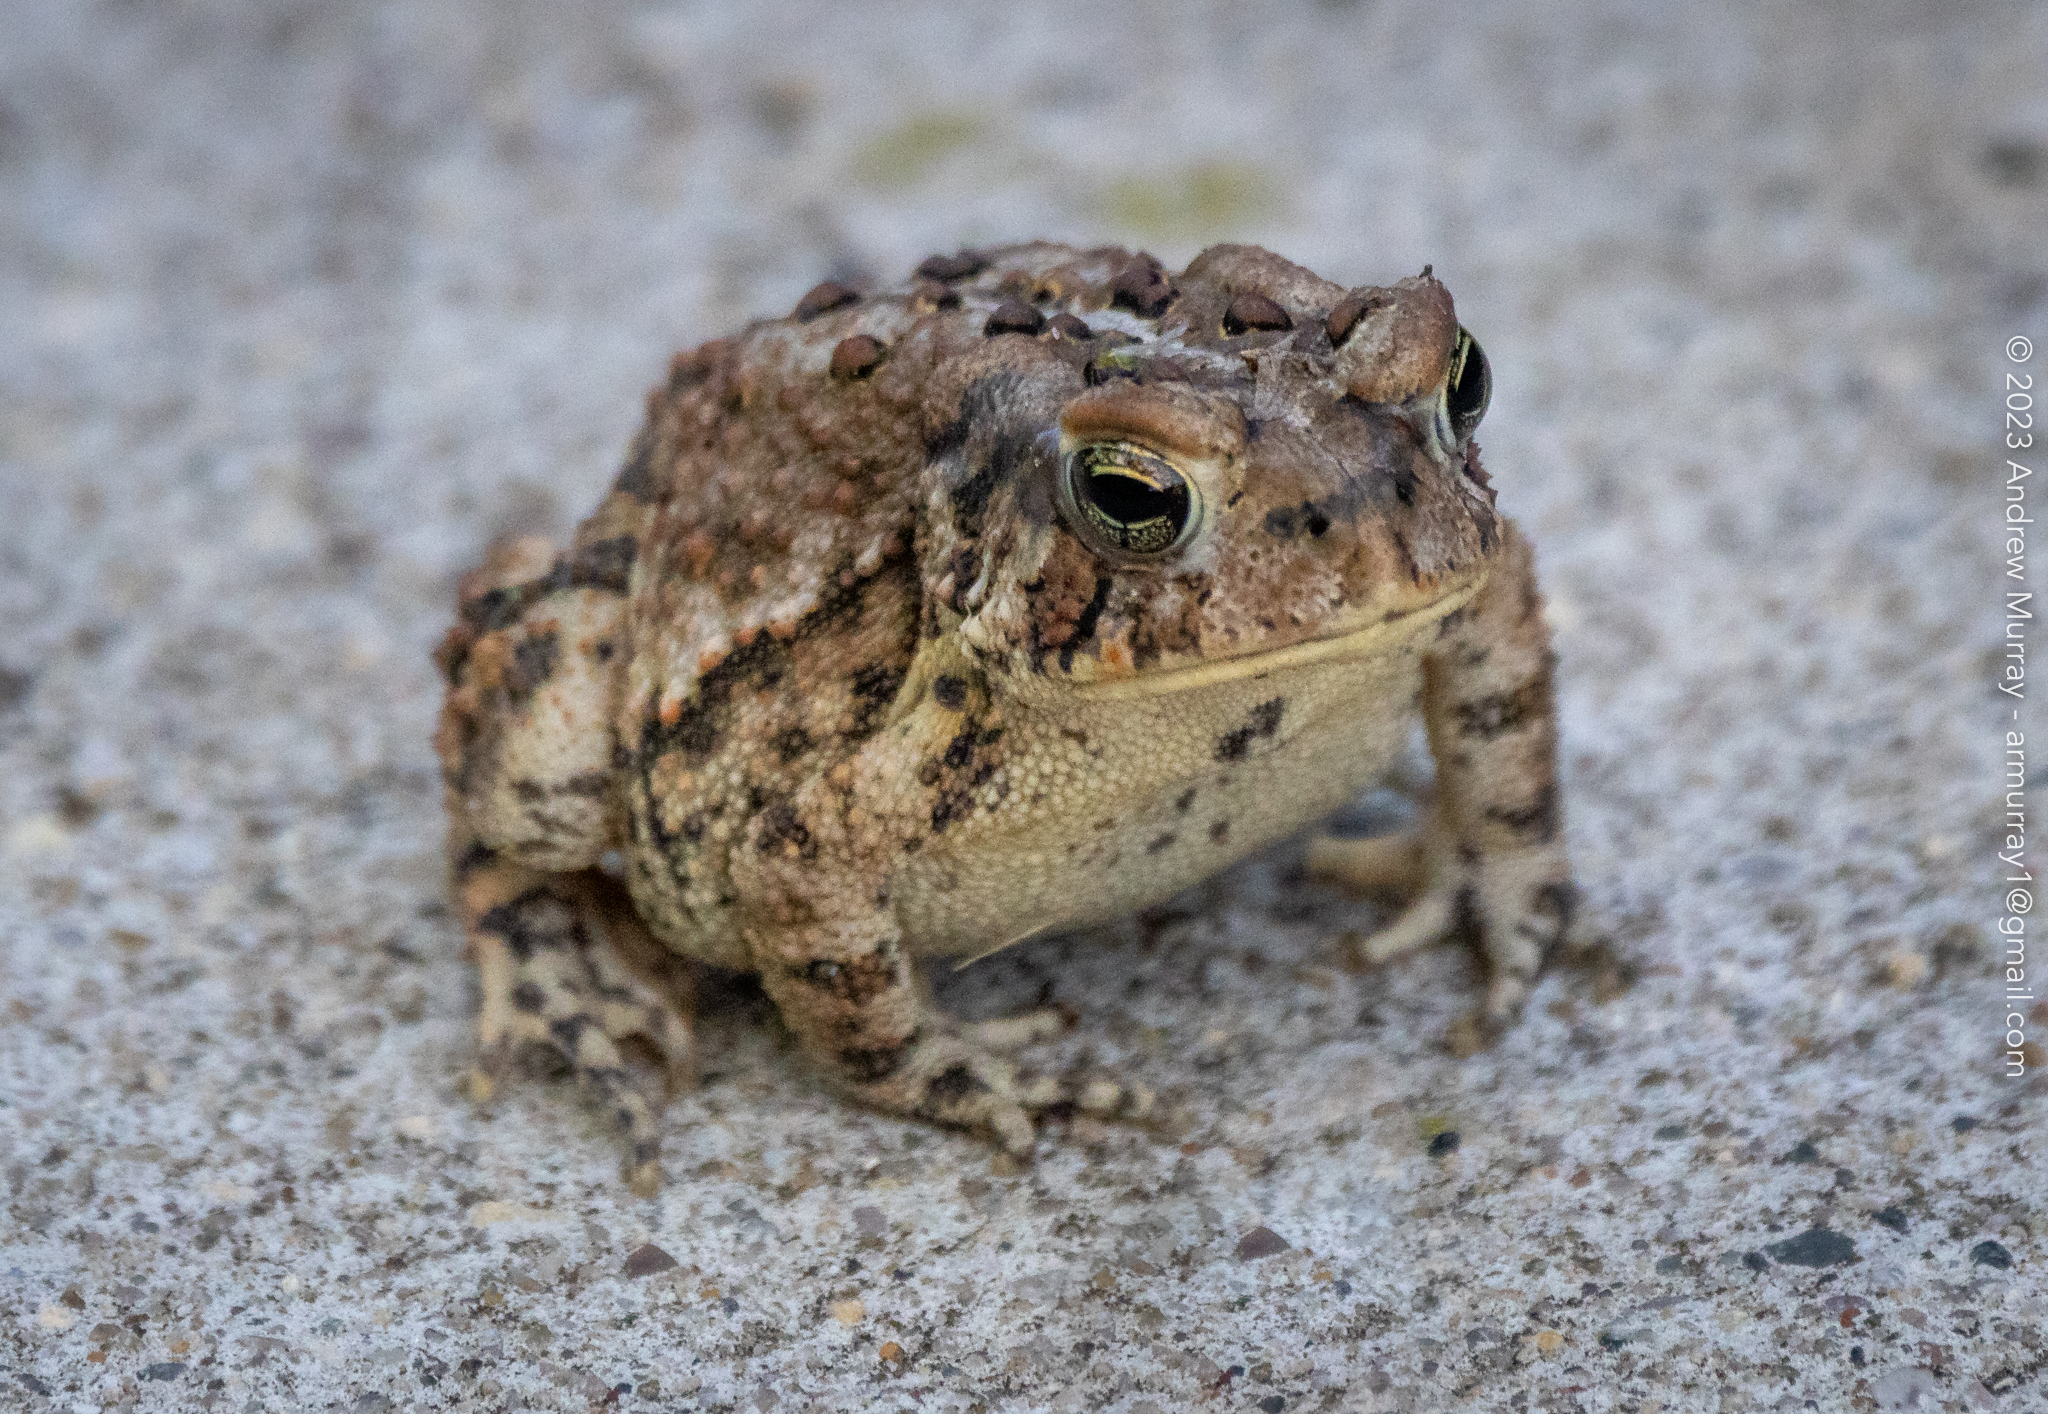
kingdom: Animalia
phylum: Chordata
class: Amphibia
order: Anura
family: Bufonidae
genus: Anaxyrus
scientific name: Anaxyrus americanus
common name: American toad
